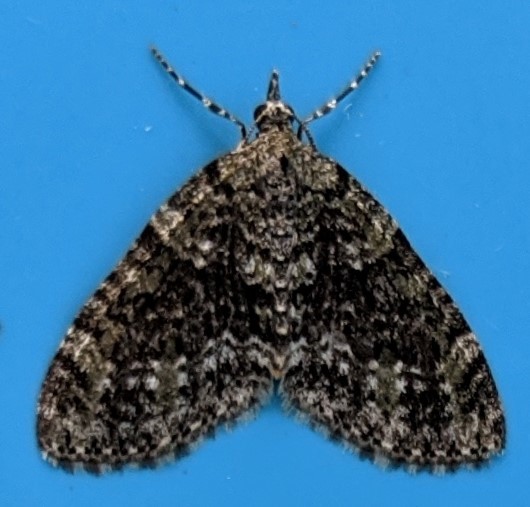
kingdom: Animalia
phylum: Arthropoda
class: Insecta
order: Lepidoptera
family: Geometridae
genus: Acasis
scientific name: Acasis viridata
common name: Olive-and-black carpet moth
